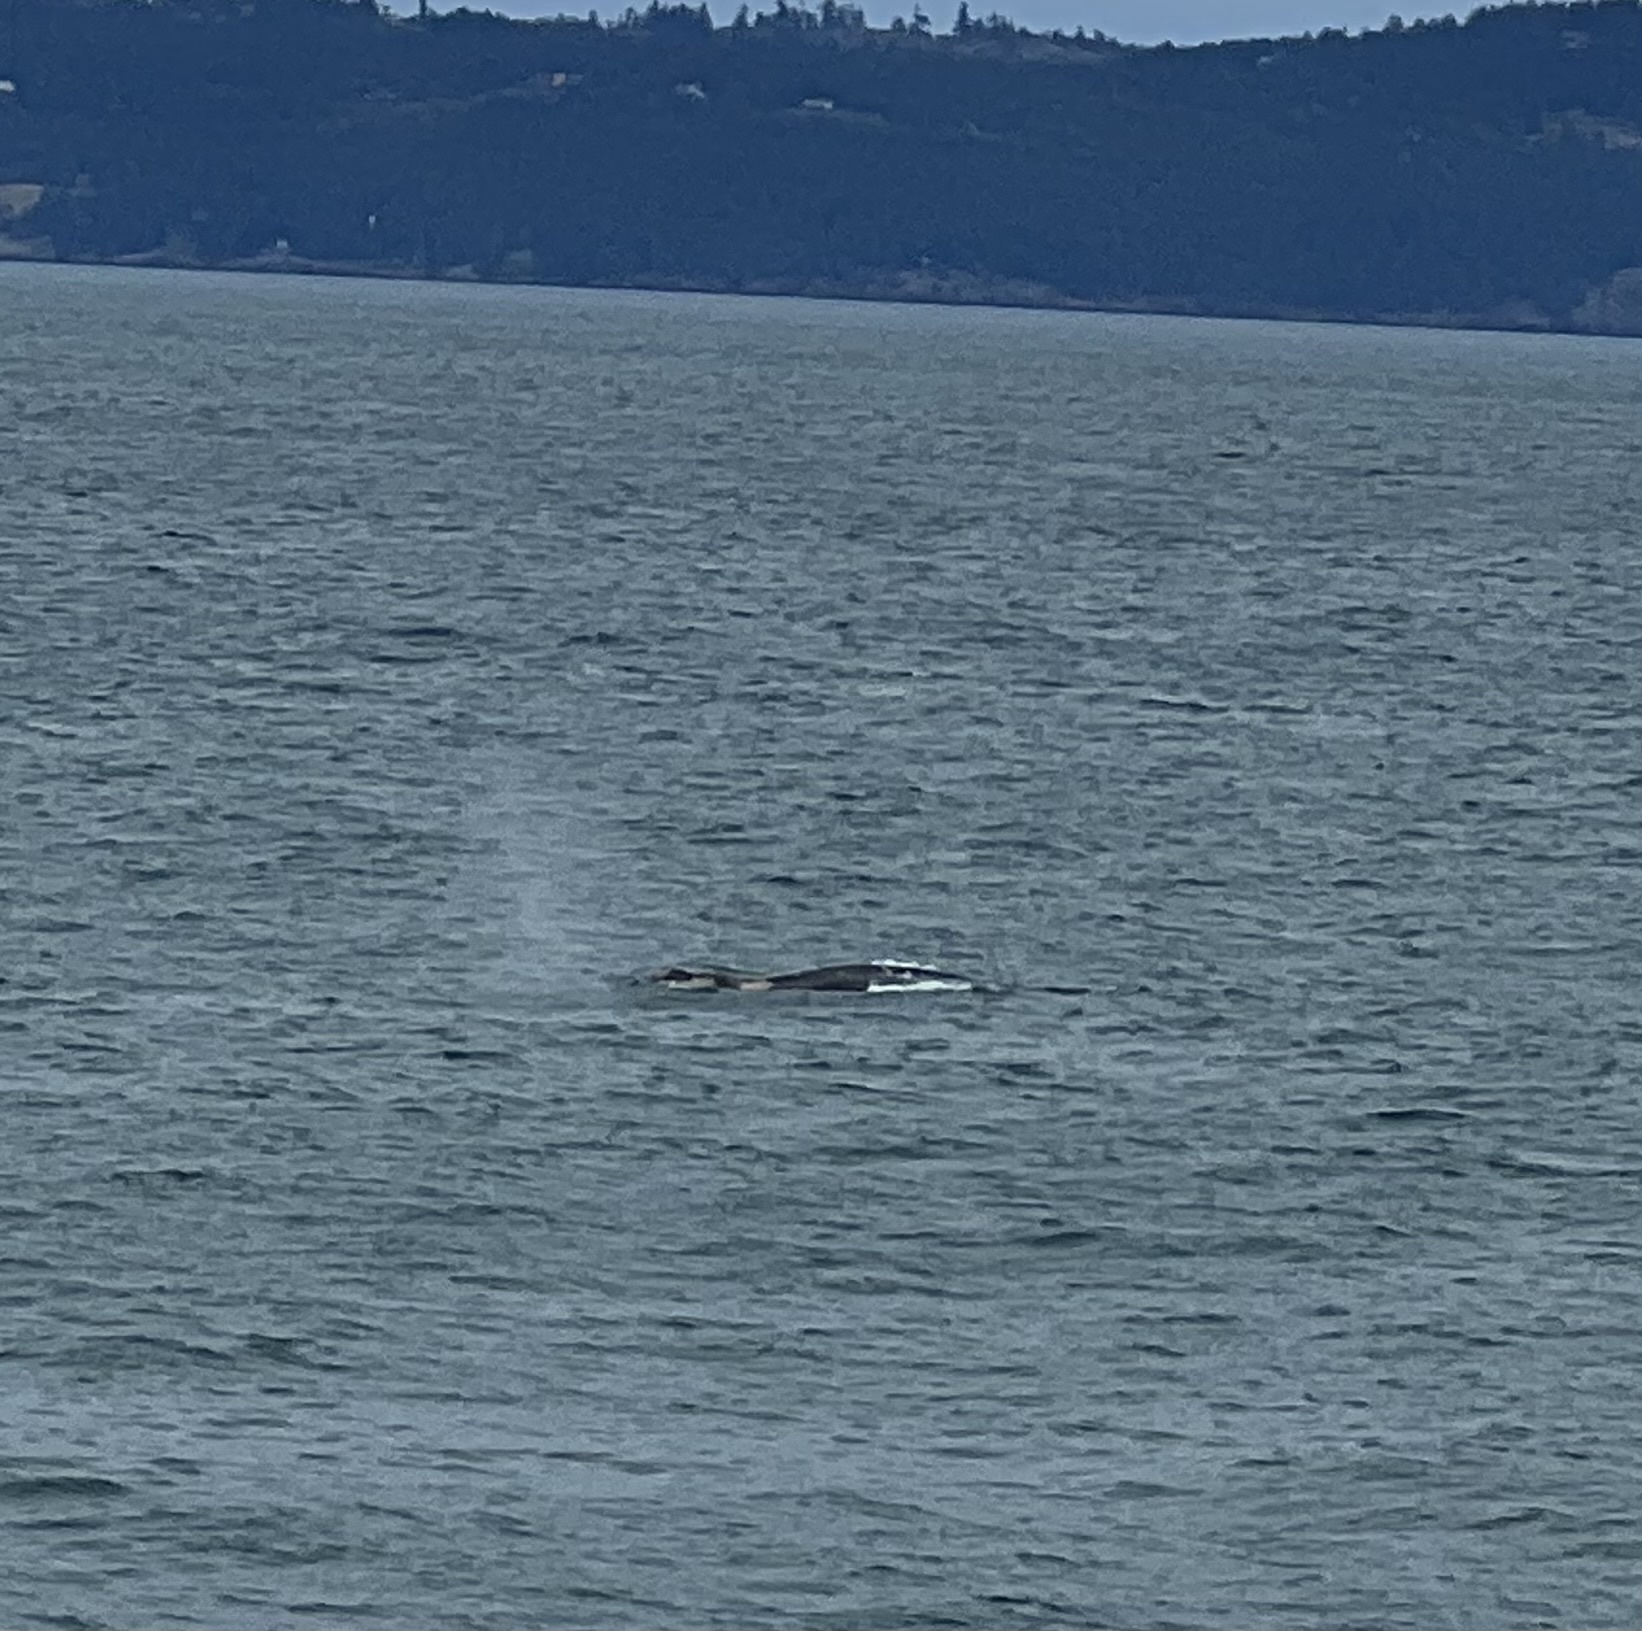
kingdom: Animalia
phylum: Chordata
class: Mammalia
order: Cetacea
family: Eschrichtiidae
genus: Eschrichtius
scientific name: Eschrichtius robustus
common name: Gray whale
